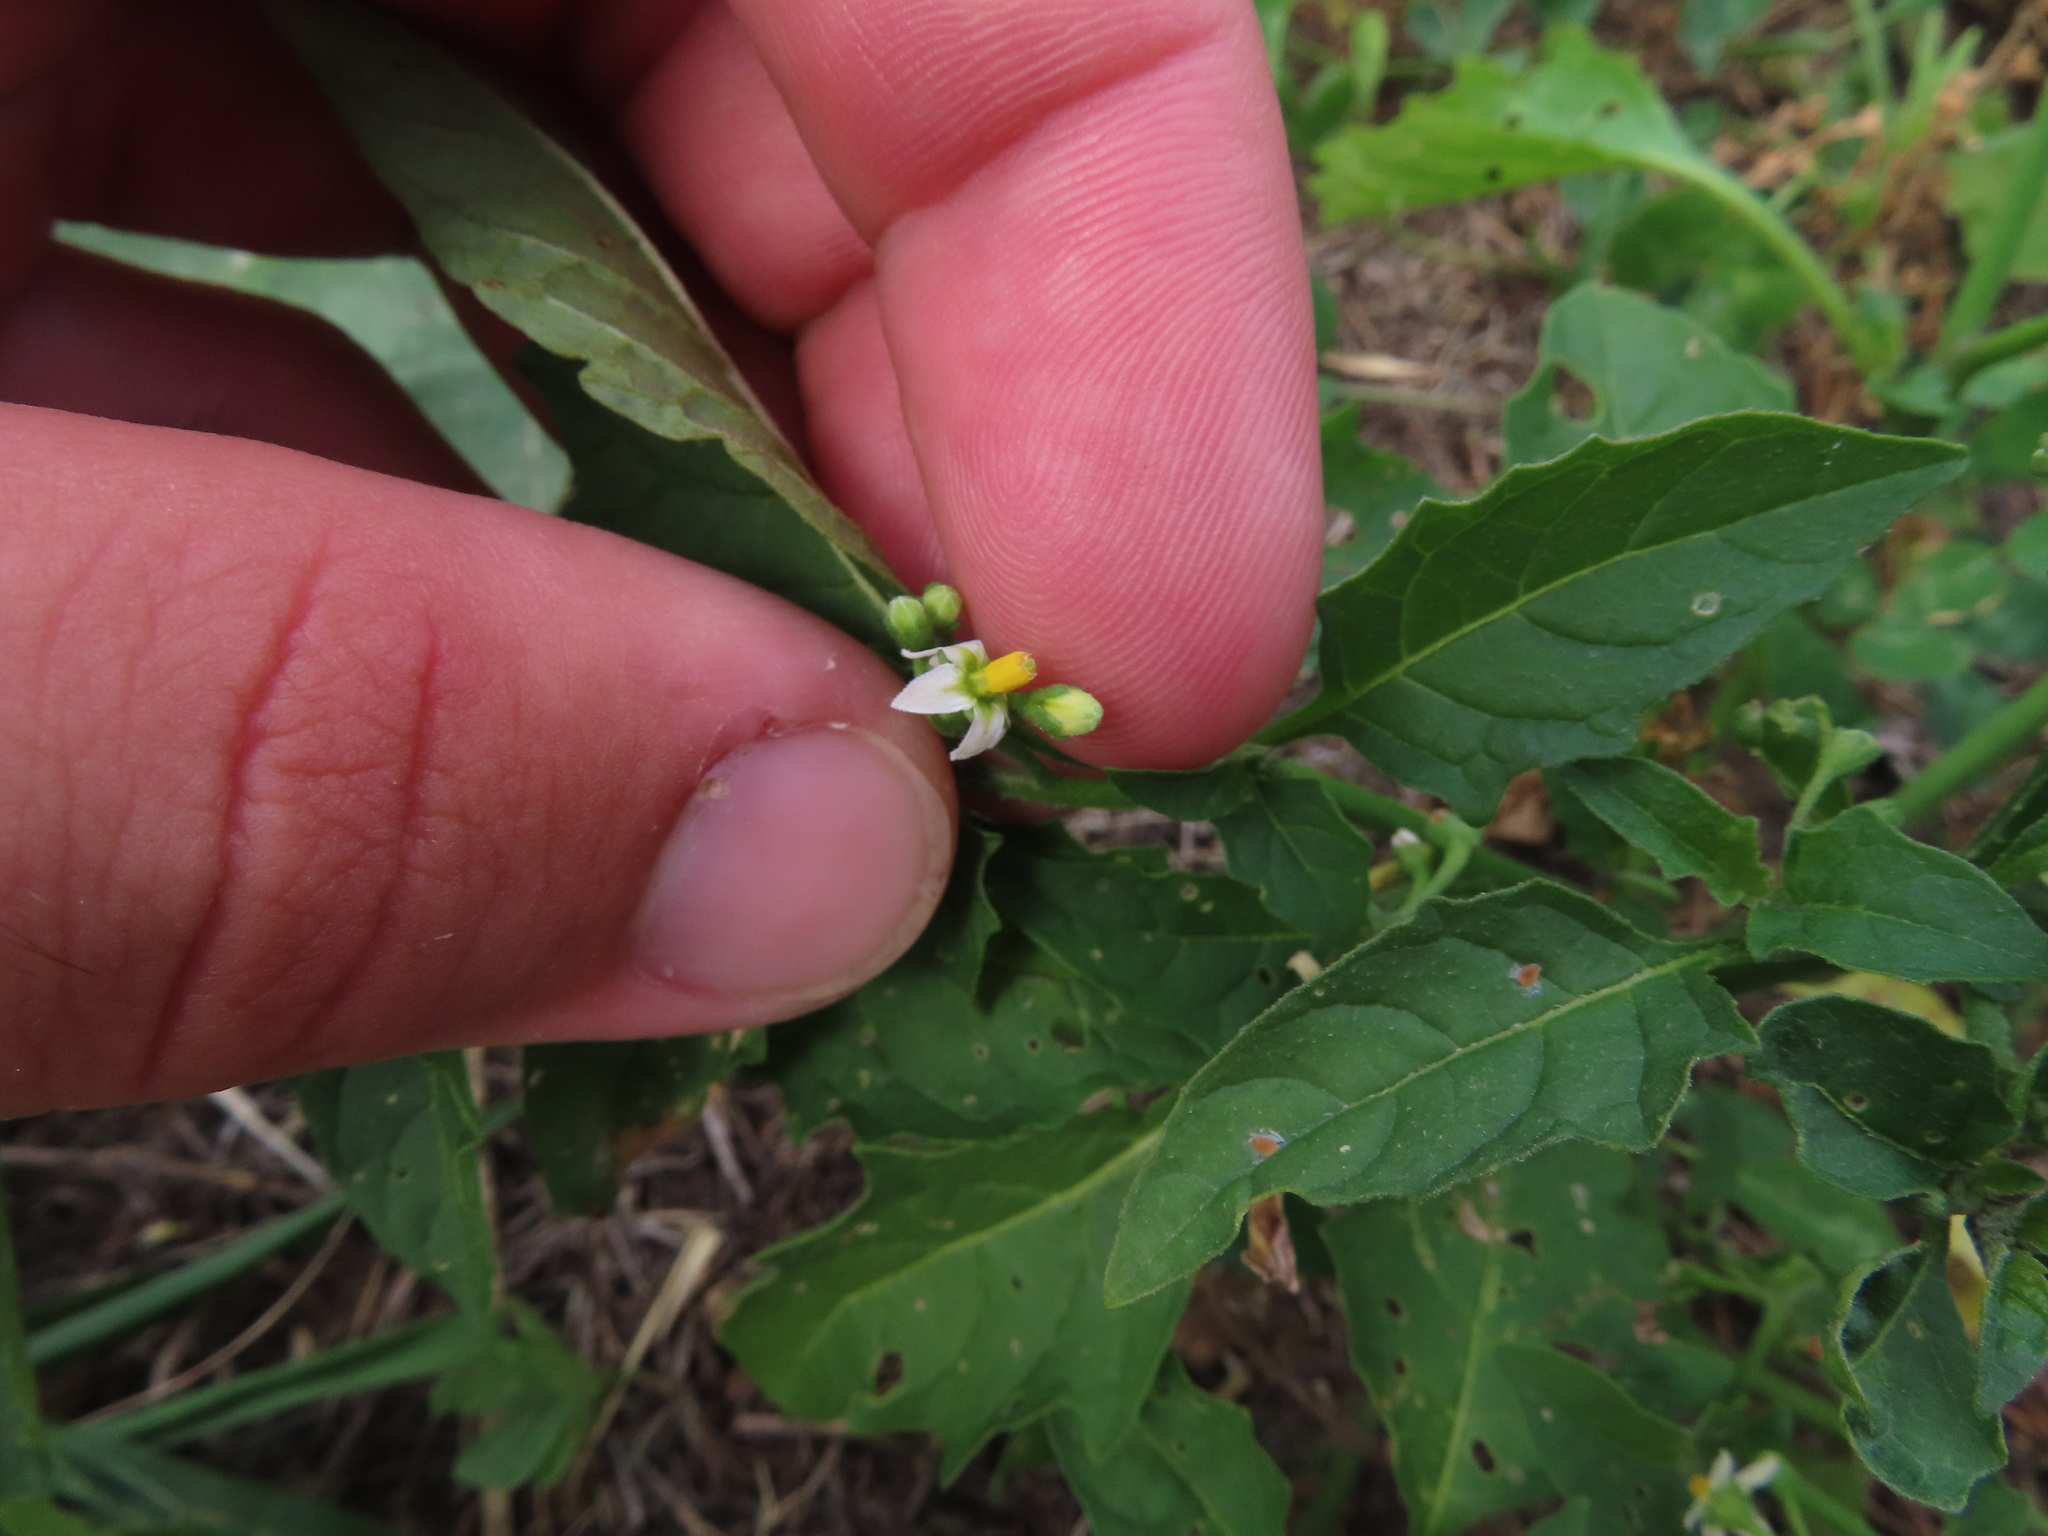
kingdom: Plantae
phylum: Tracheophyta
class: Magnoliopsida
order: Solanales
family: Solanaceae
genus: Solanum
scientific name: Solanum emulans
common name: Eastern black nightshade
